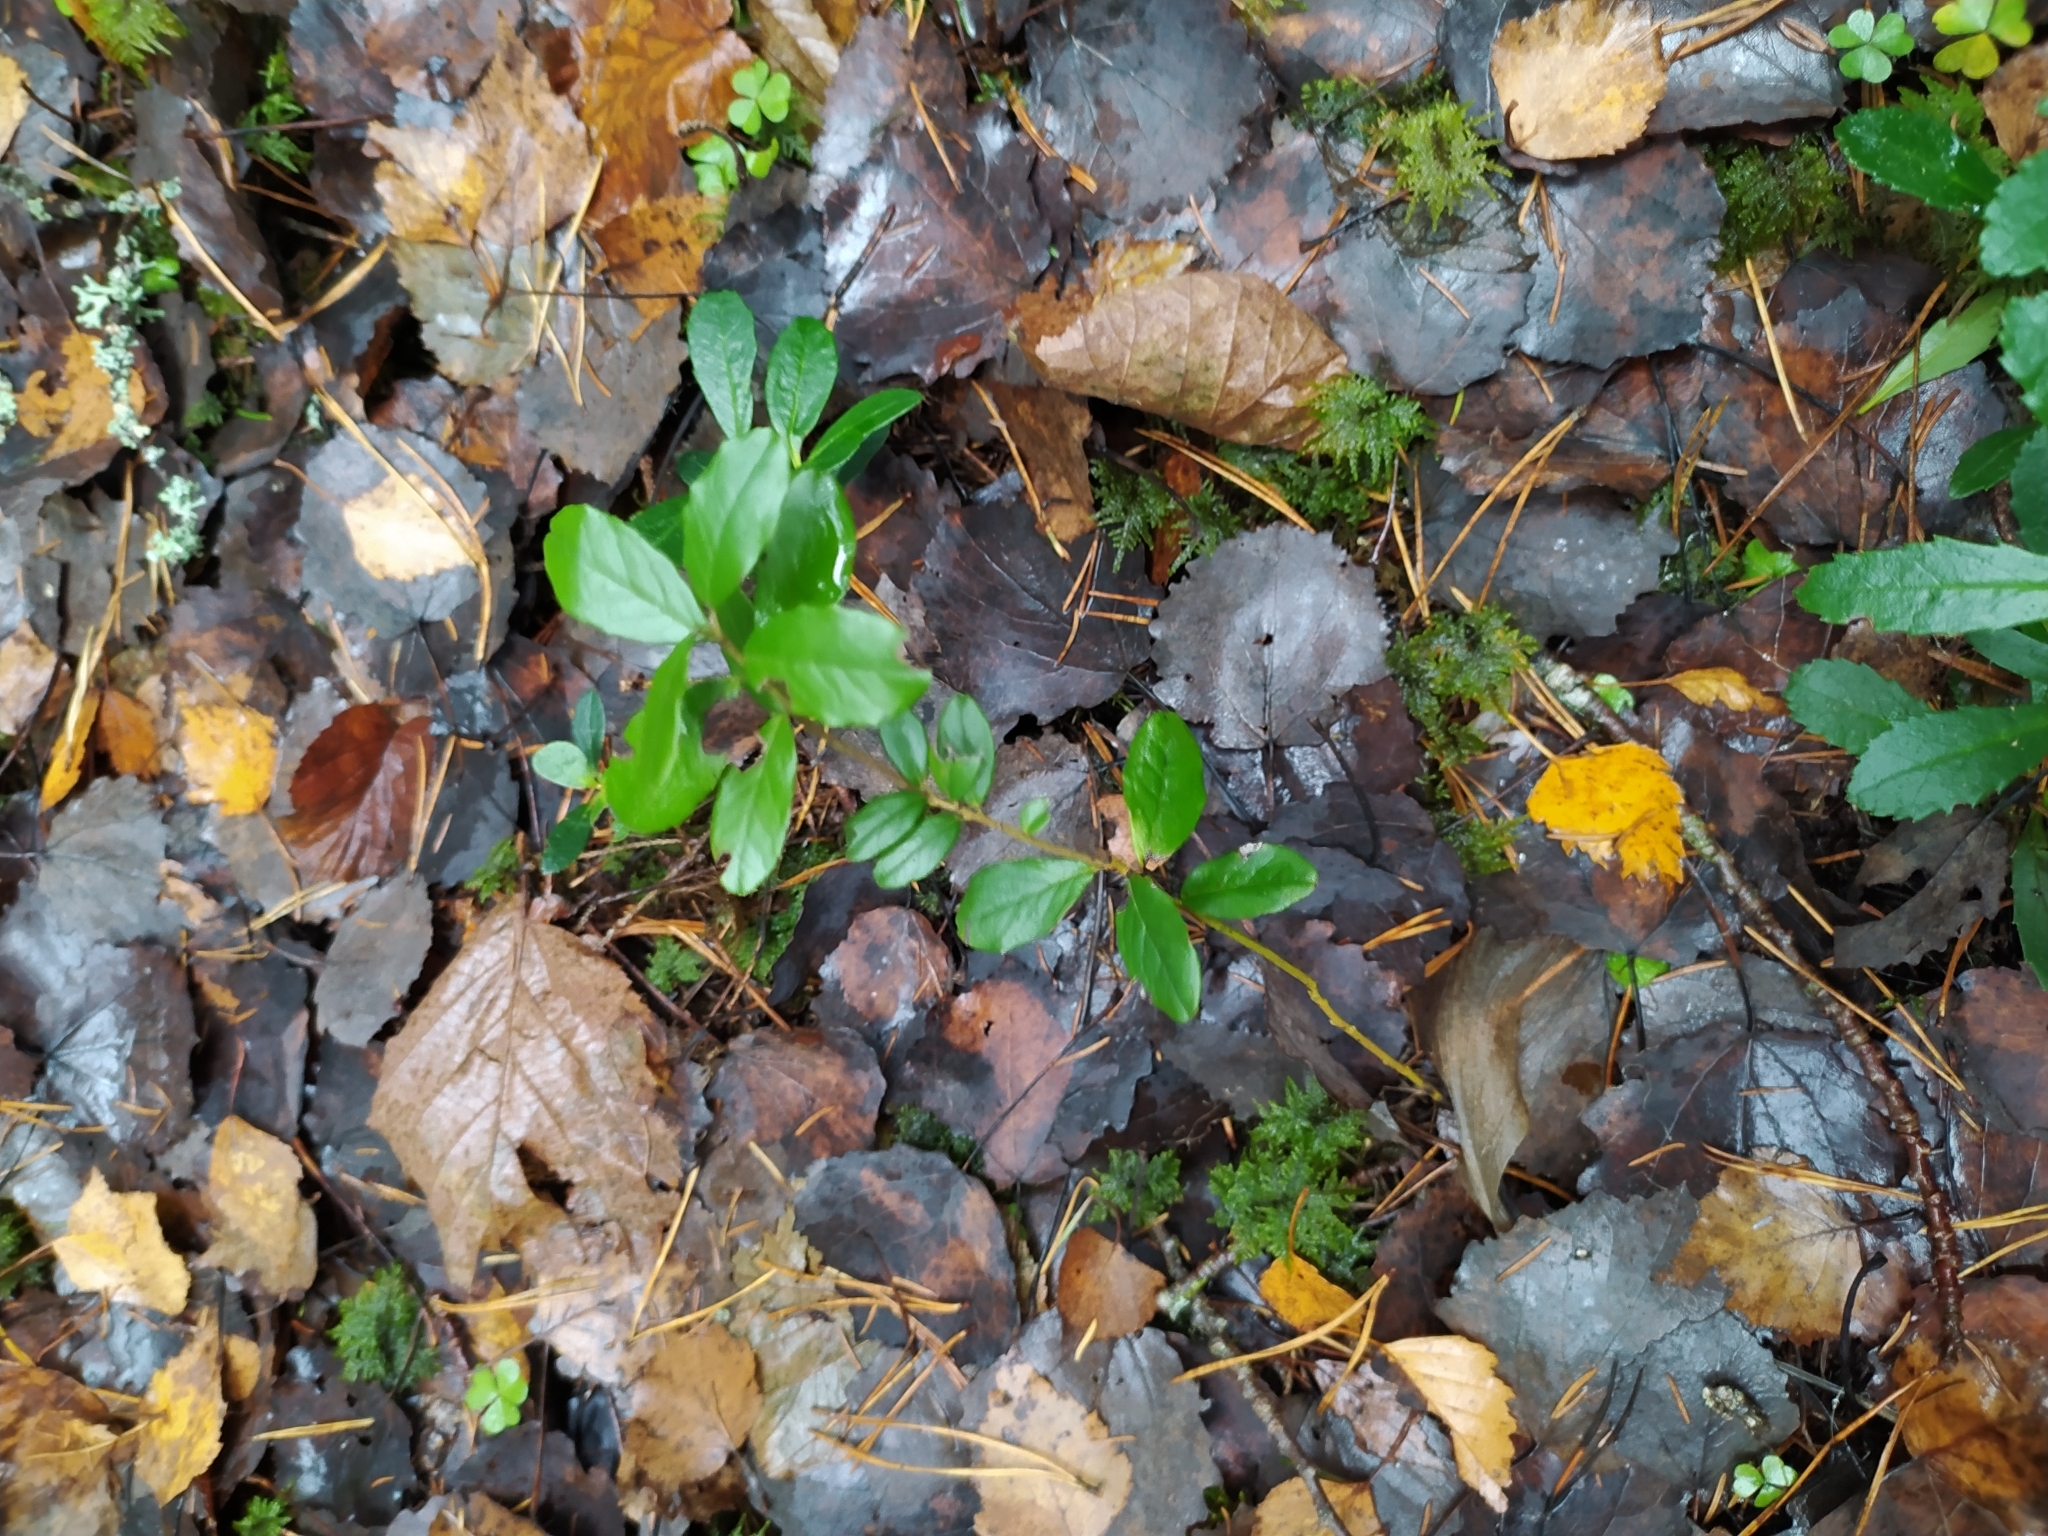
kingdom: Plantae
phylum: Tracheophyta
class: Magnoliopsida
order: Ericales
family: Ericaceae
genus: Vaccinium
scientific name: Vaccinium vitis-idaea
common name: Cowberry
